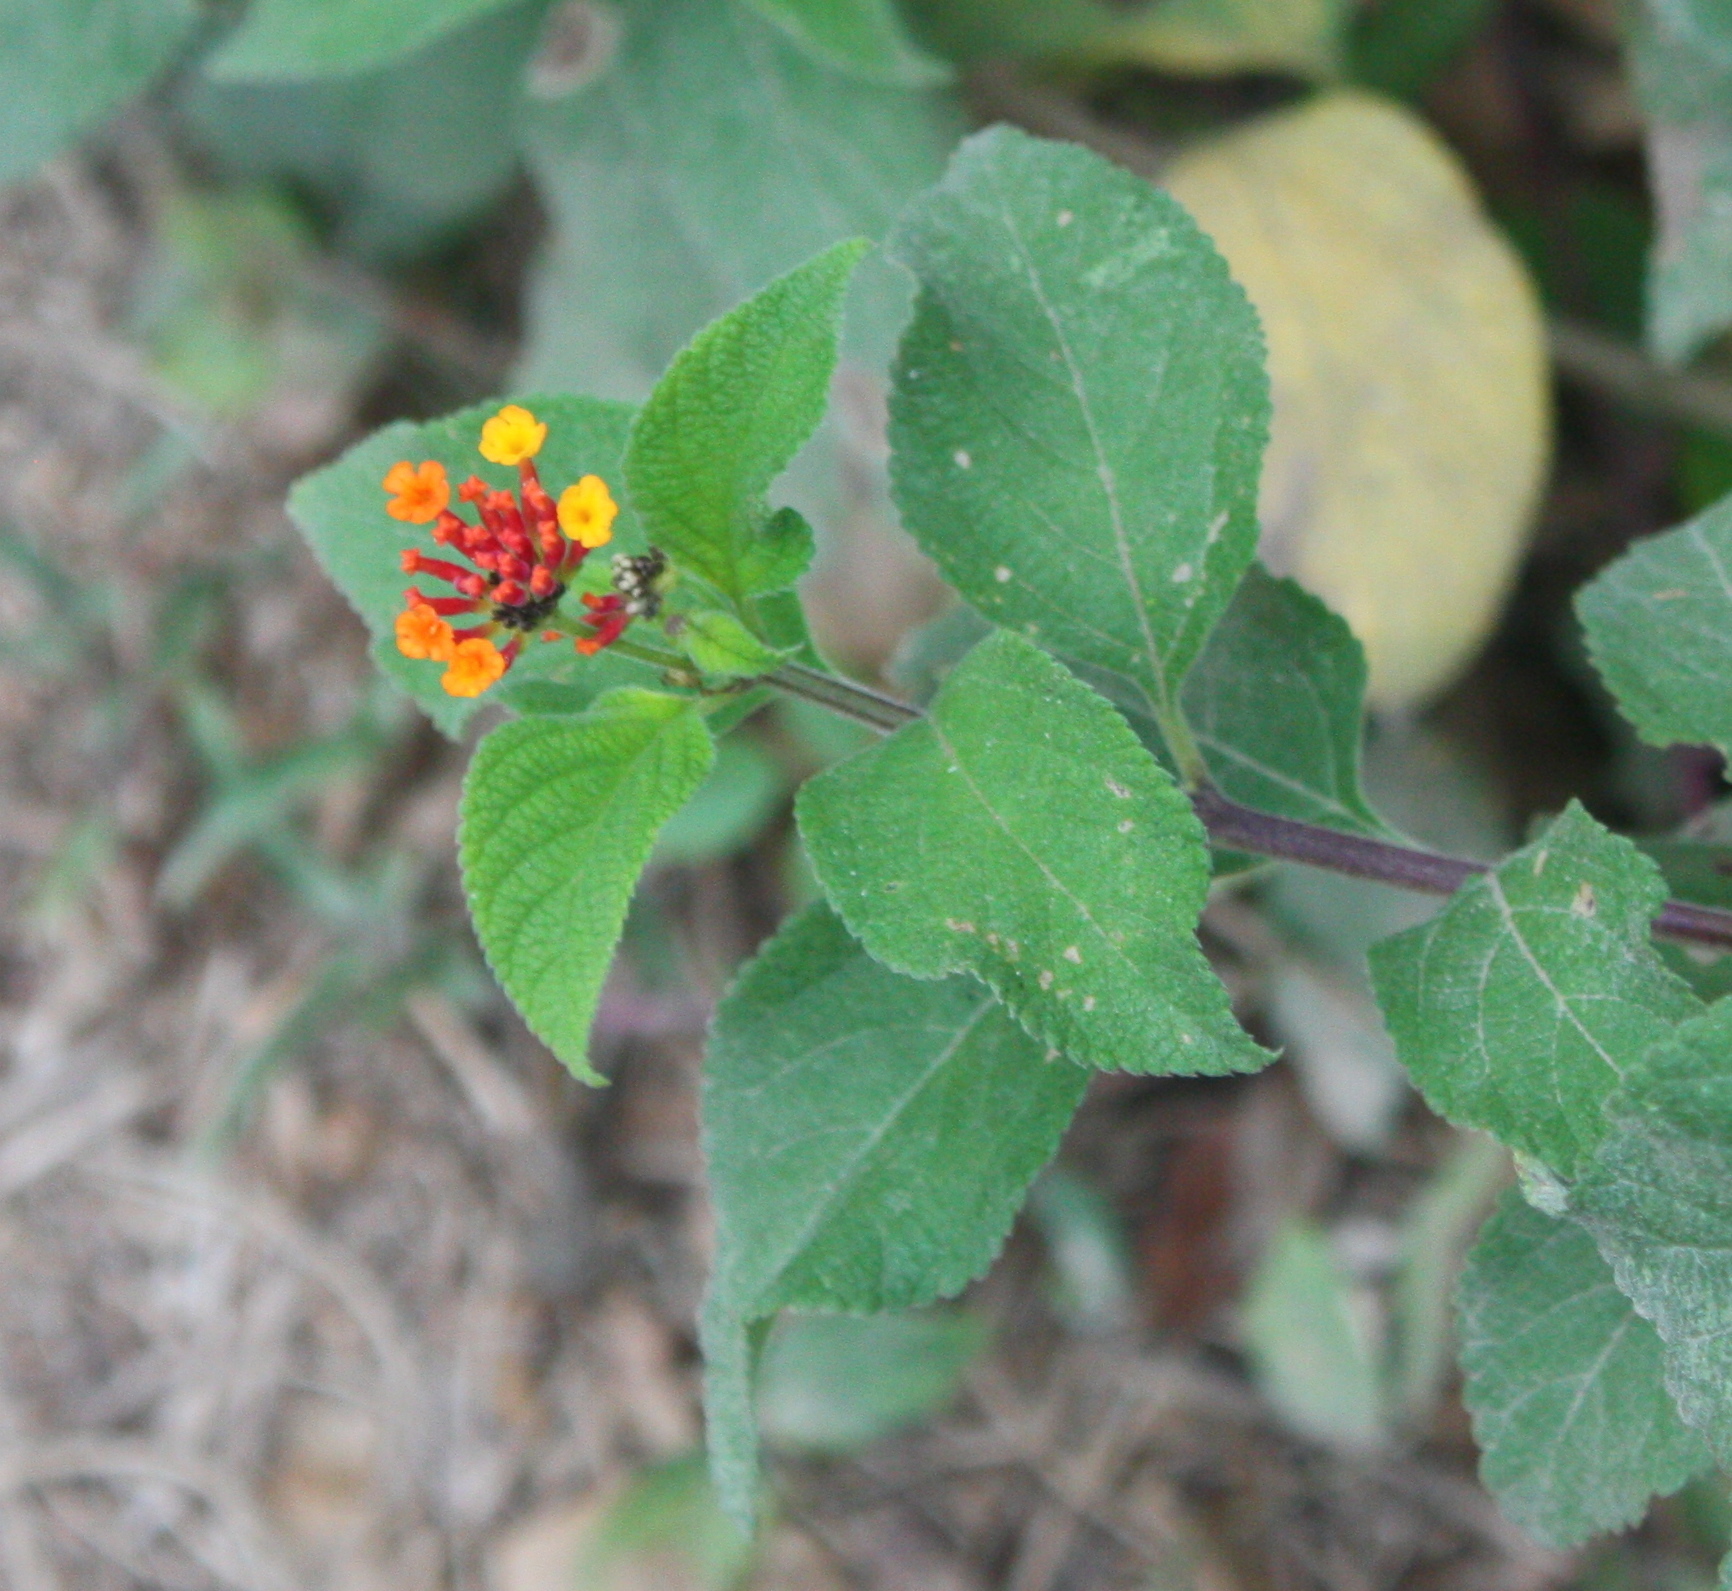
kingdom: Plantae
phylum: Tracheophyta
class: Magnoliopsida
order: Lamiales
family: Verbenaceae
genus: Lantana
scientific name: Lantana camara
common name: Lantana
